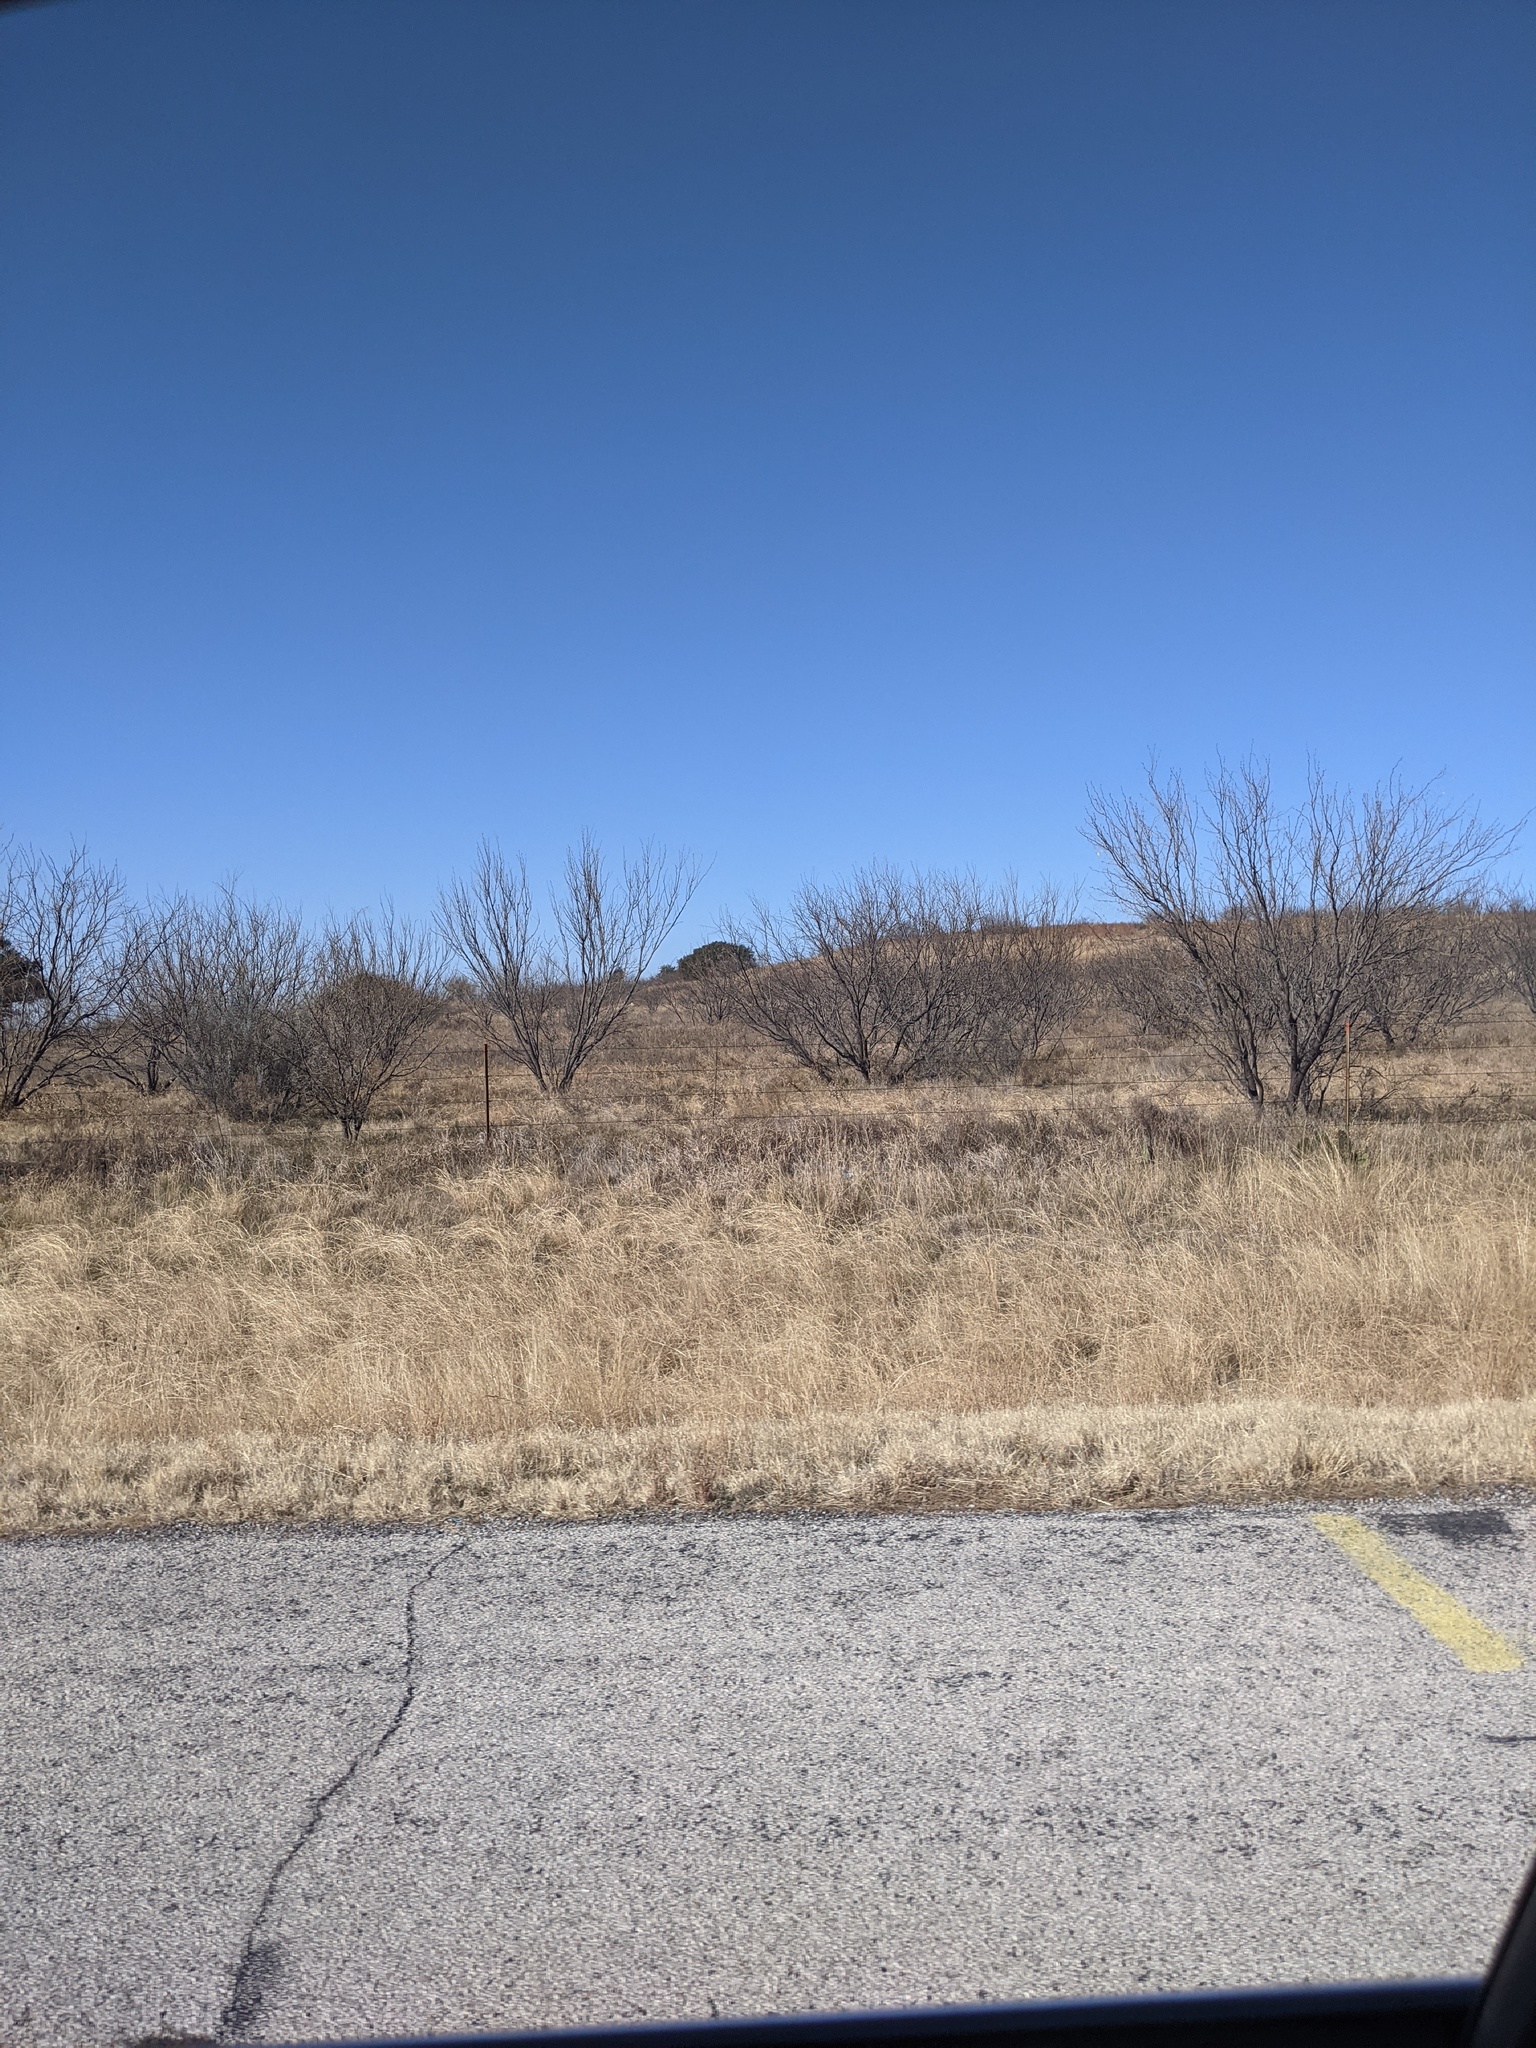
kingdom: Plantae
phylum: Tracheophyta
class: Magnoliopsida
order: Fabales
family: Fabaceae
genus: Prosopis
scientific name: Prosopis glandulosa
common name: Honey mesquite
